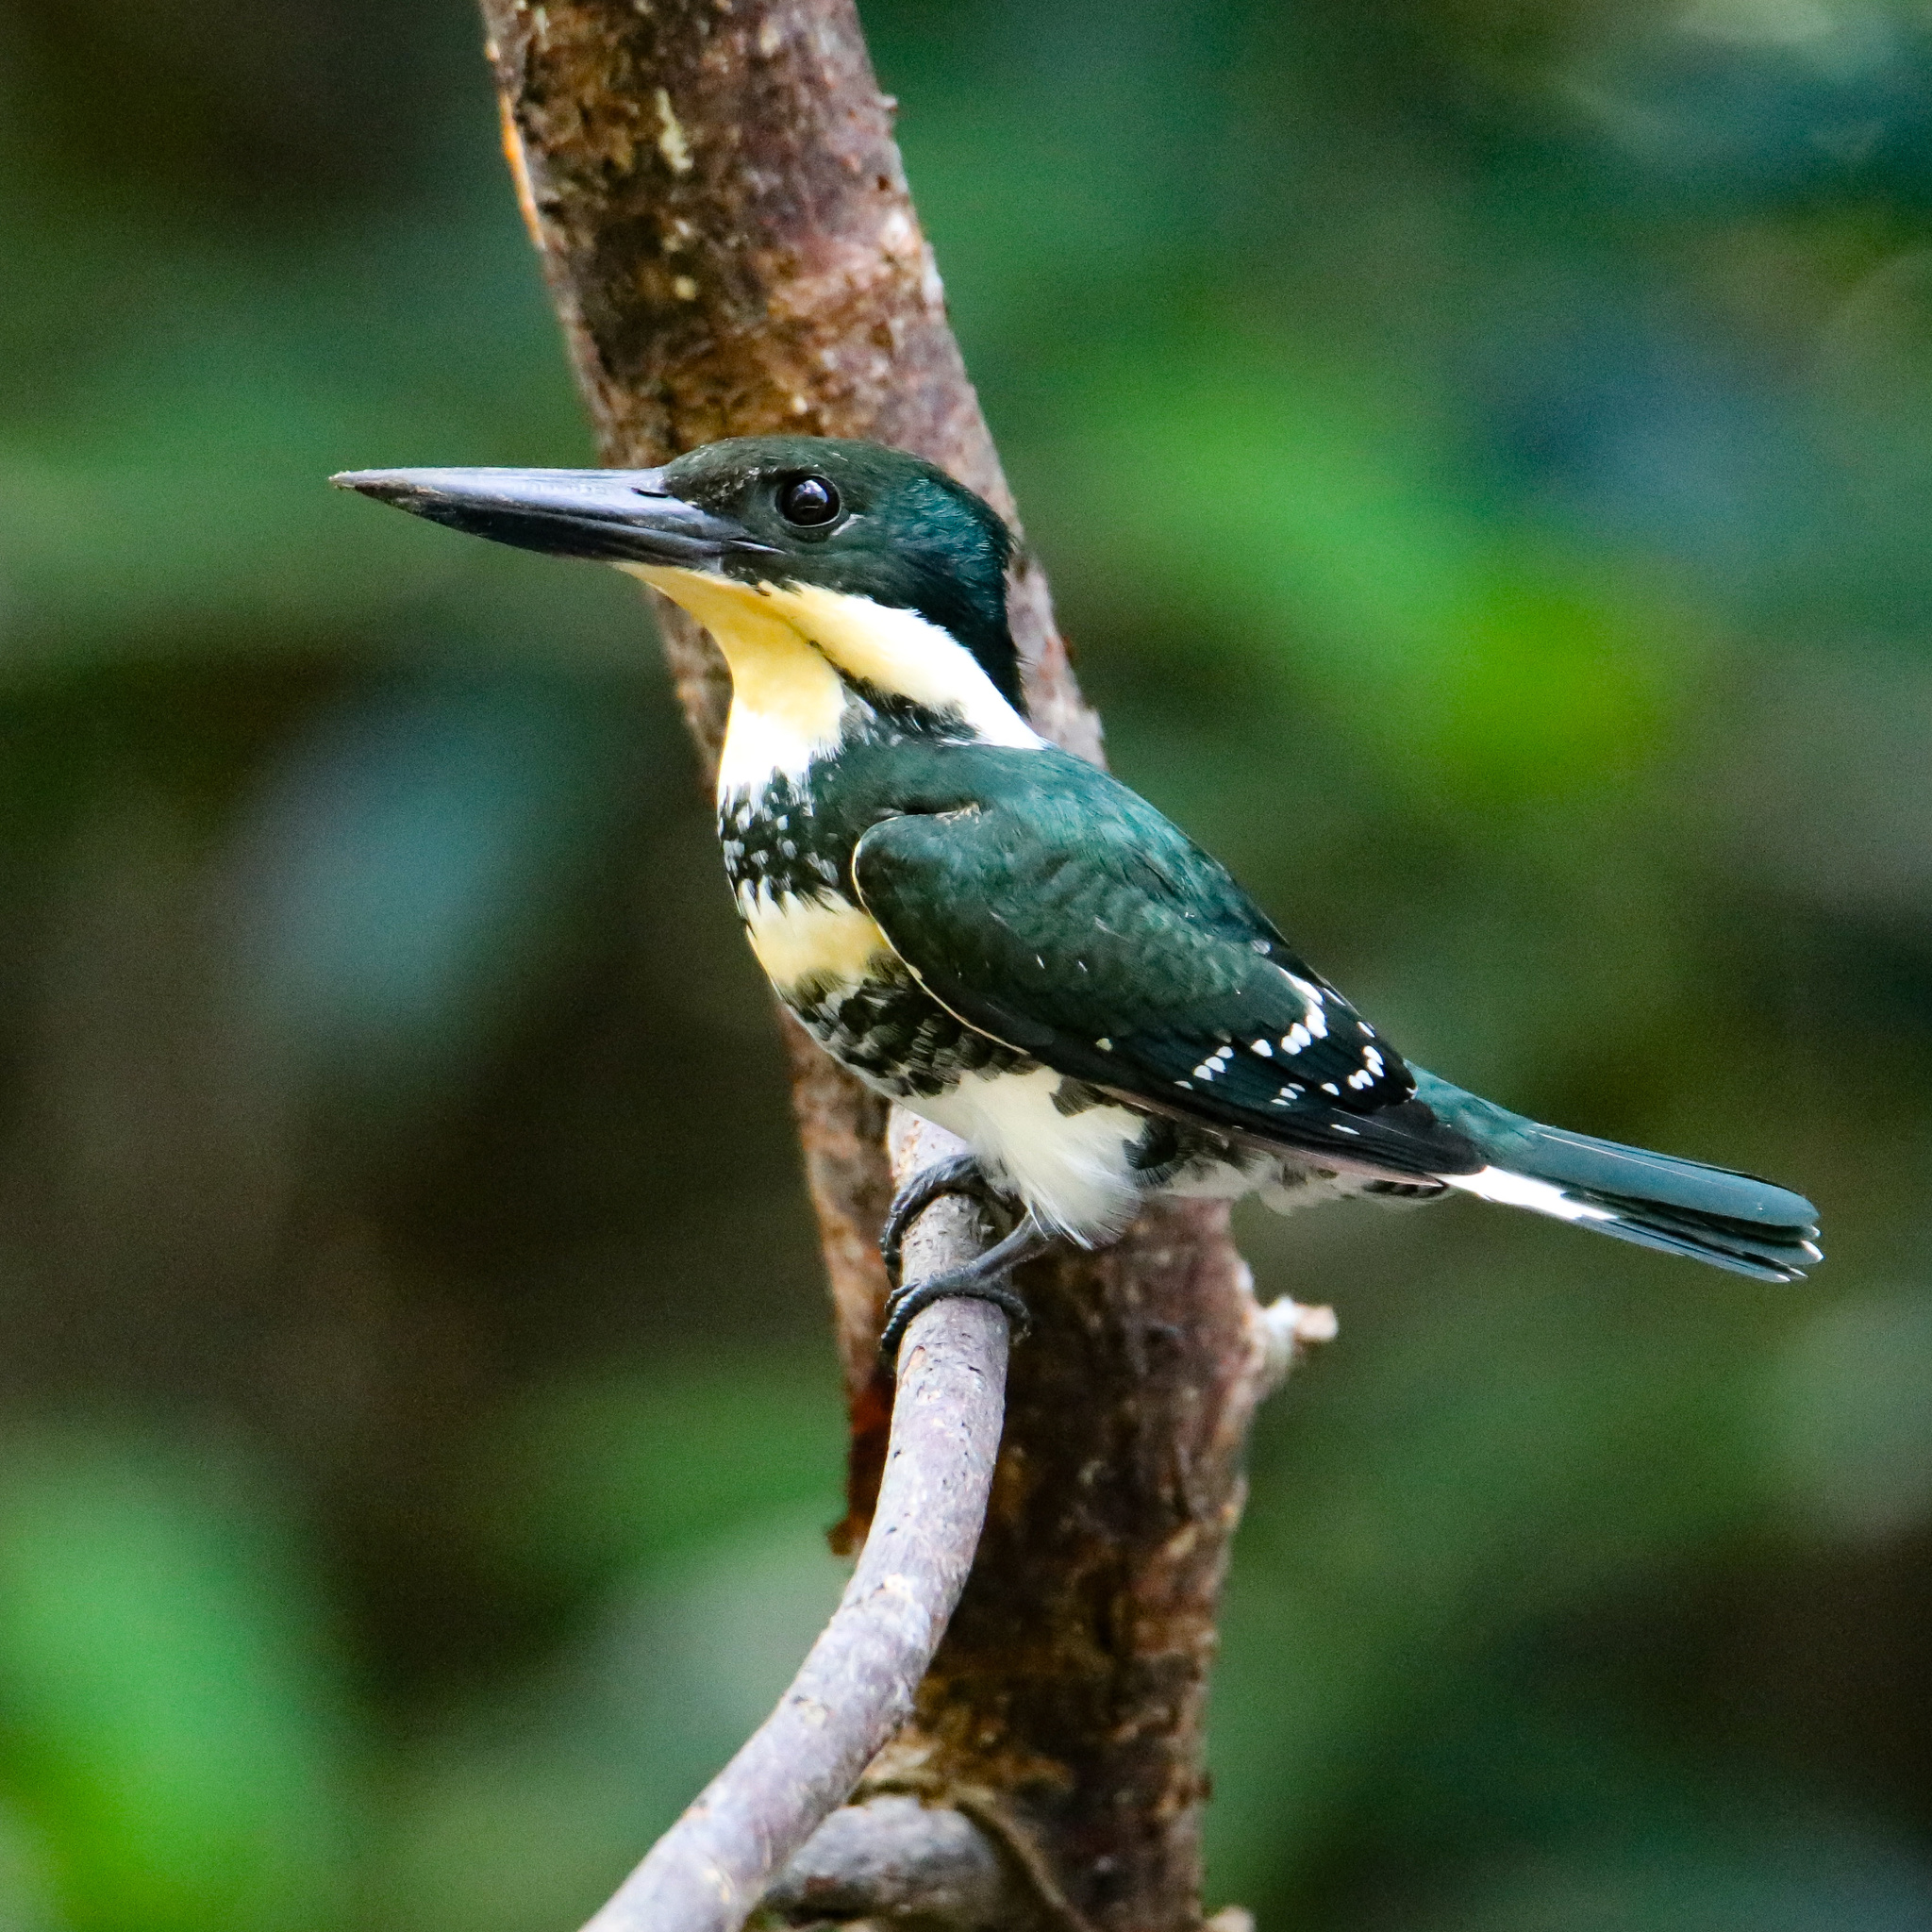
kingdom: Animalia
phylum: Chordata
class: Aves
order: Coraciiformes
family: Alcedinidae
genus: Chloroceryle
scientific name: Chloroceryle americana
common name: Green kingfisher
